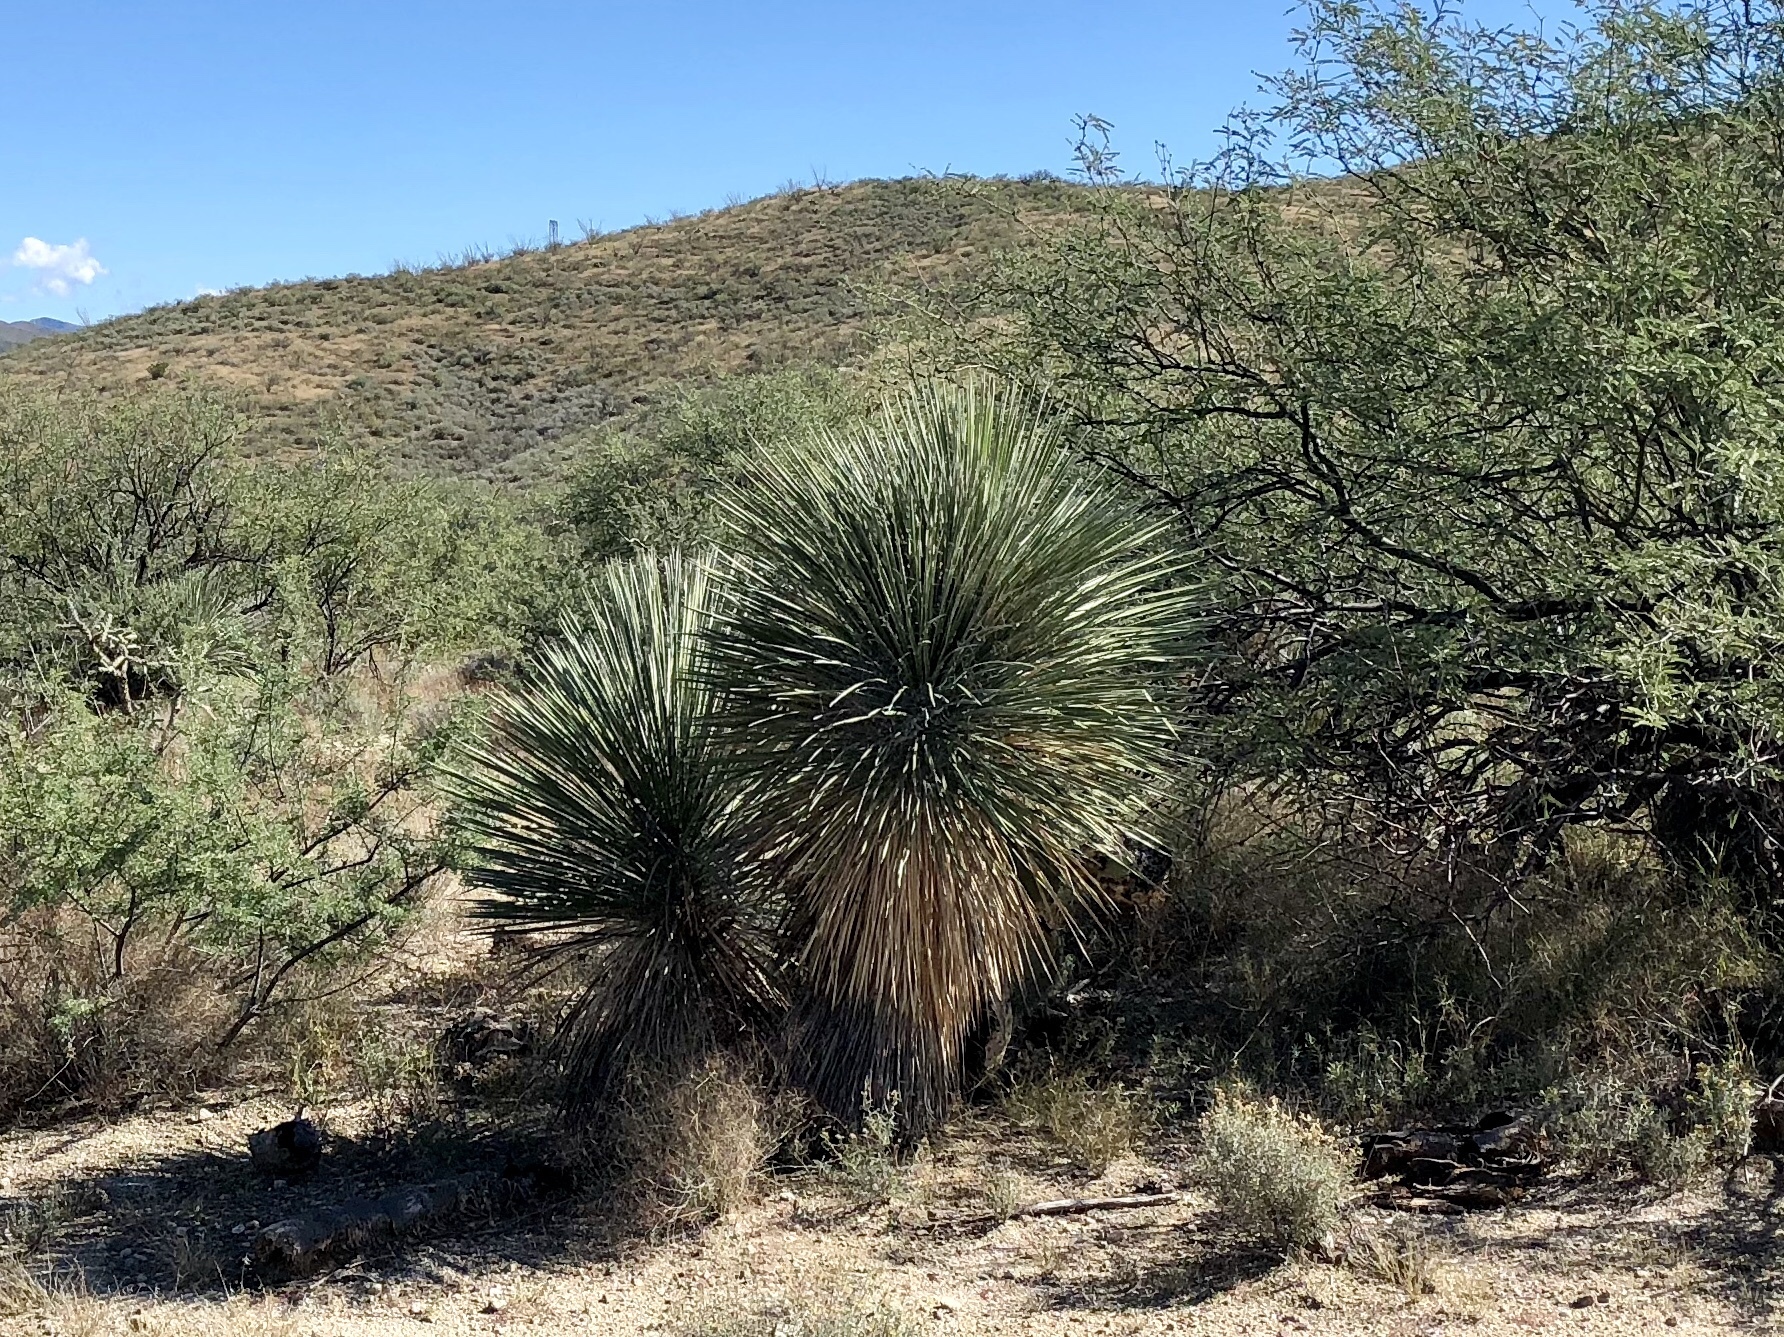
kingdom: Plantae
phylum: Tracheophyta
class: Liliopsida
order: Asparagales
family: Asparagaceae
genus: Yucca
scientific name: Yucca elata
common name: Palmella
